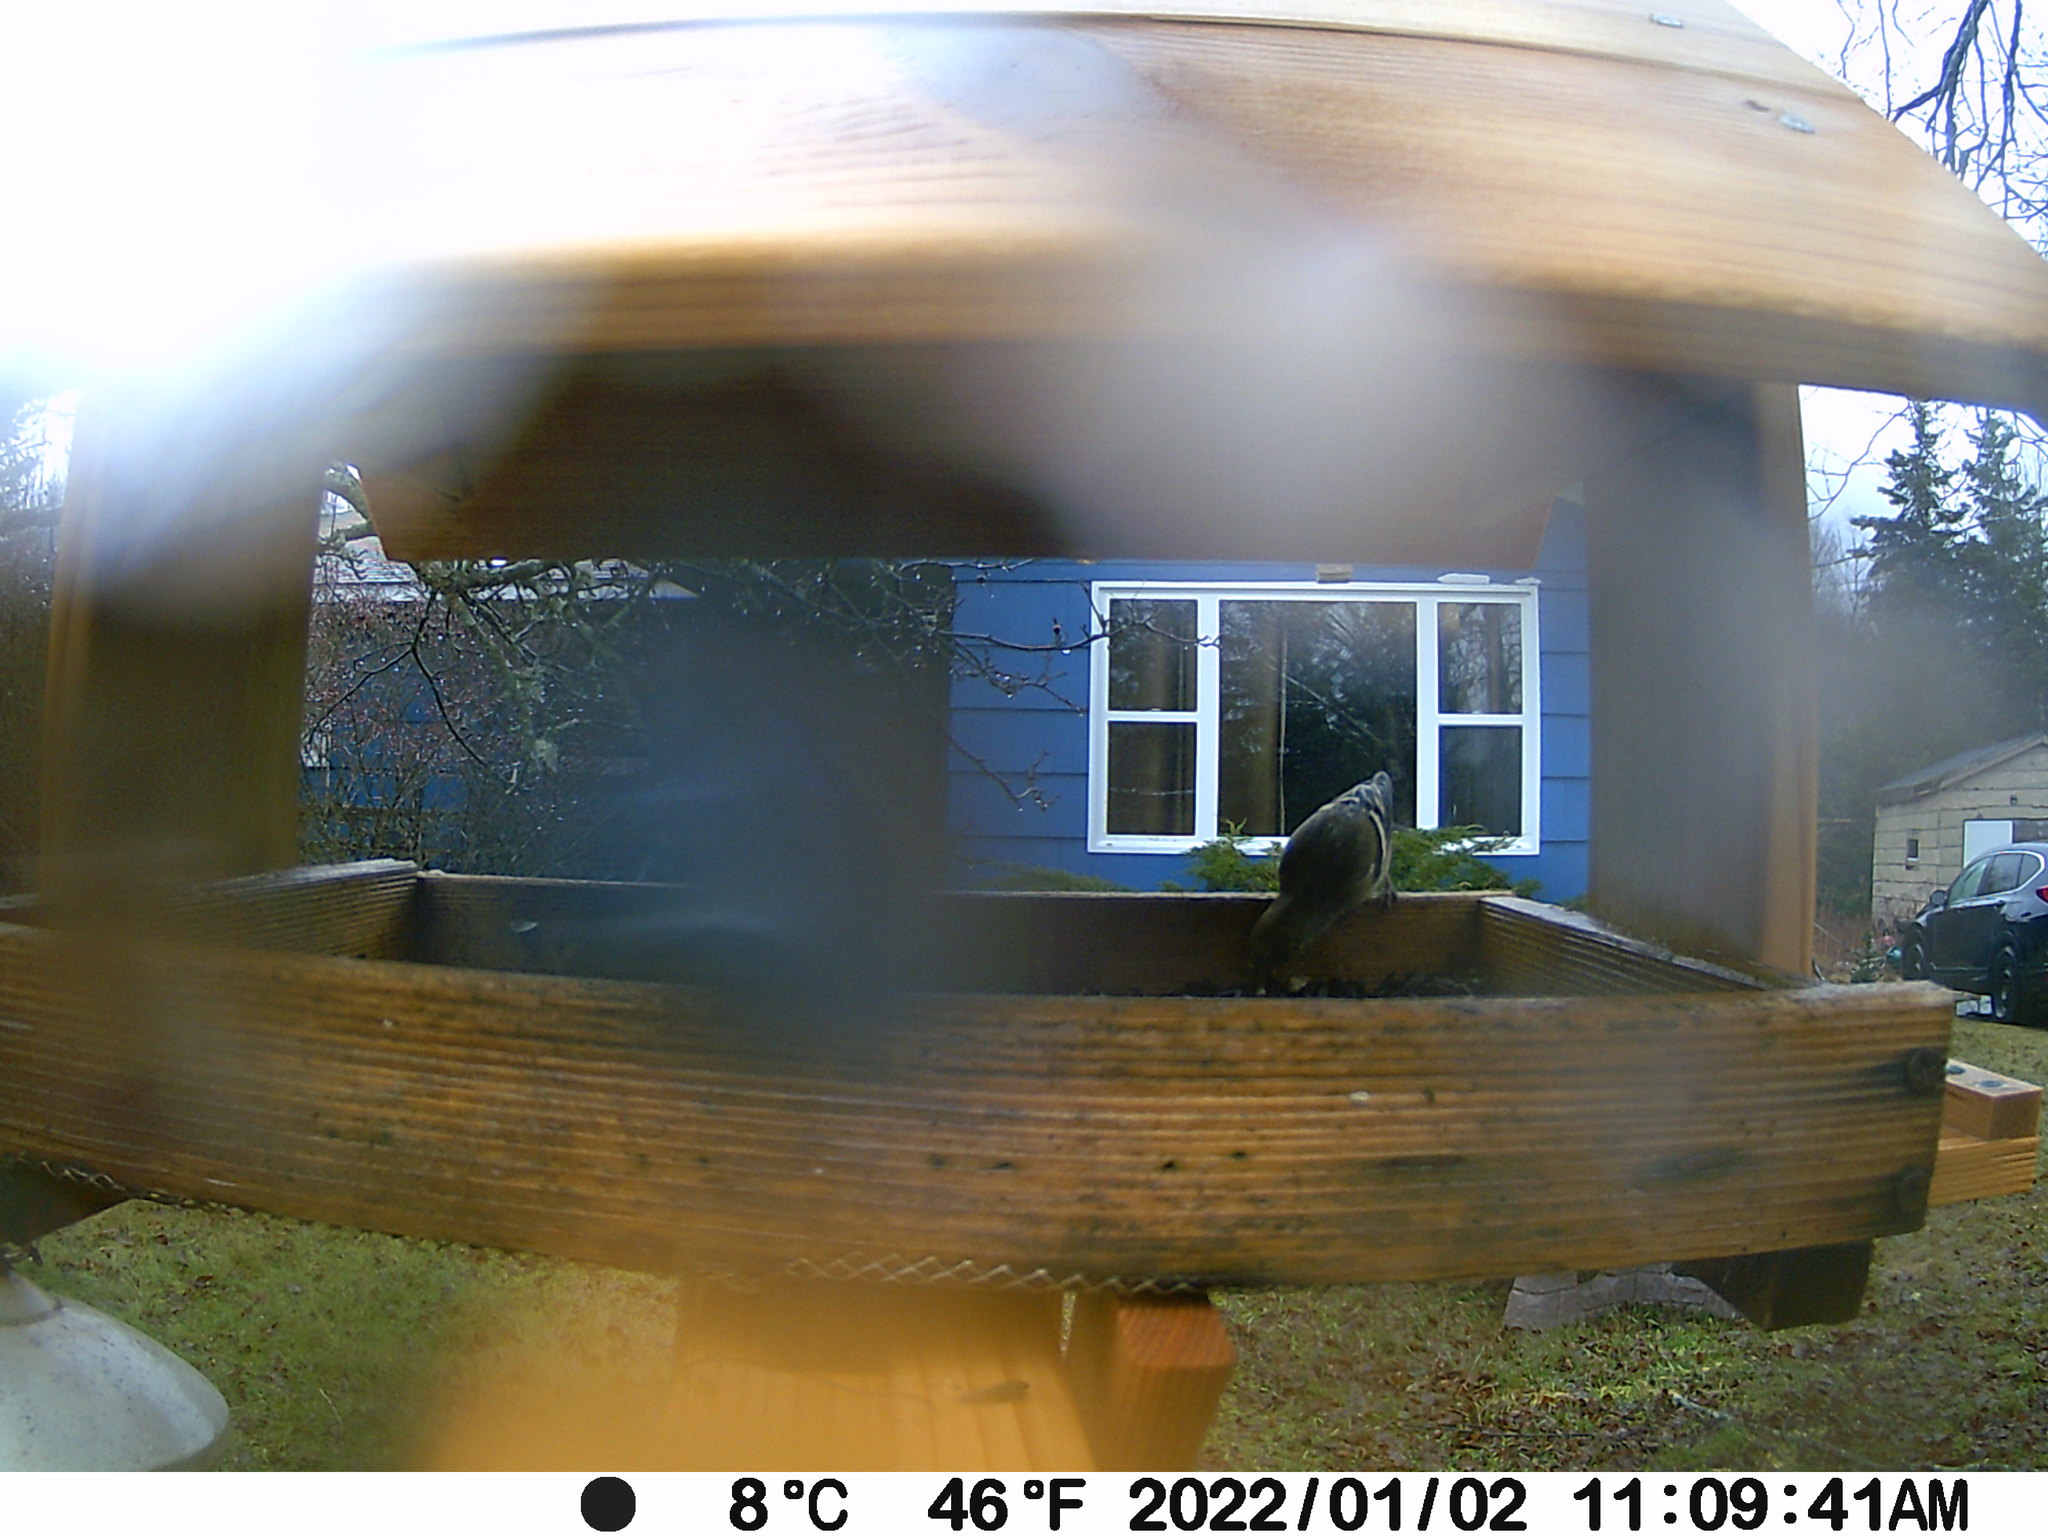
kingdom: Animalia
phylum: Chordata
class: Aves
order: Passeriformes
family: Fringillidae
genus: Spinus
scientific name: Spinus tristis
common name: American goldfinch
